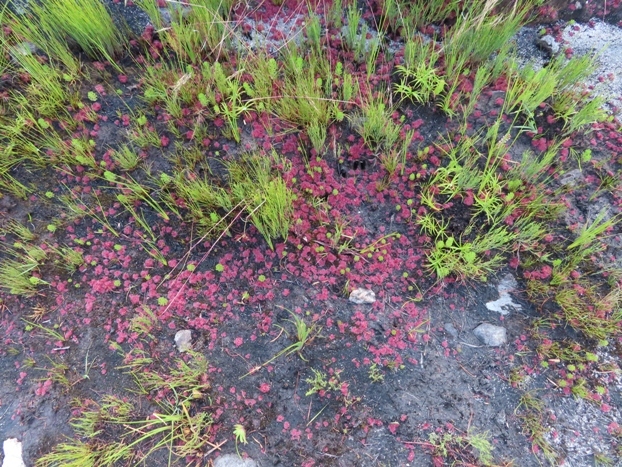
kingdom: Plantae
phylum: Tracheophyta
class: Magnoliopsida
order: Caryophyllales
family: Droseraceae
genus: Drosera
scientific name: Drosera trinervia
